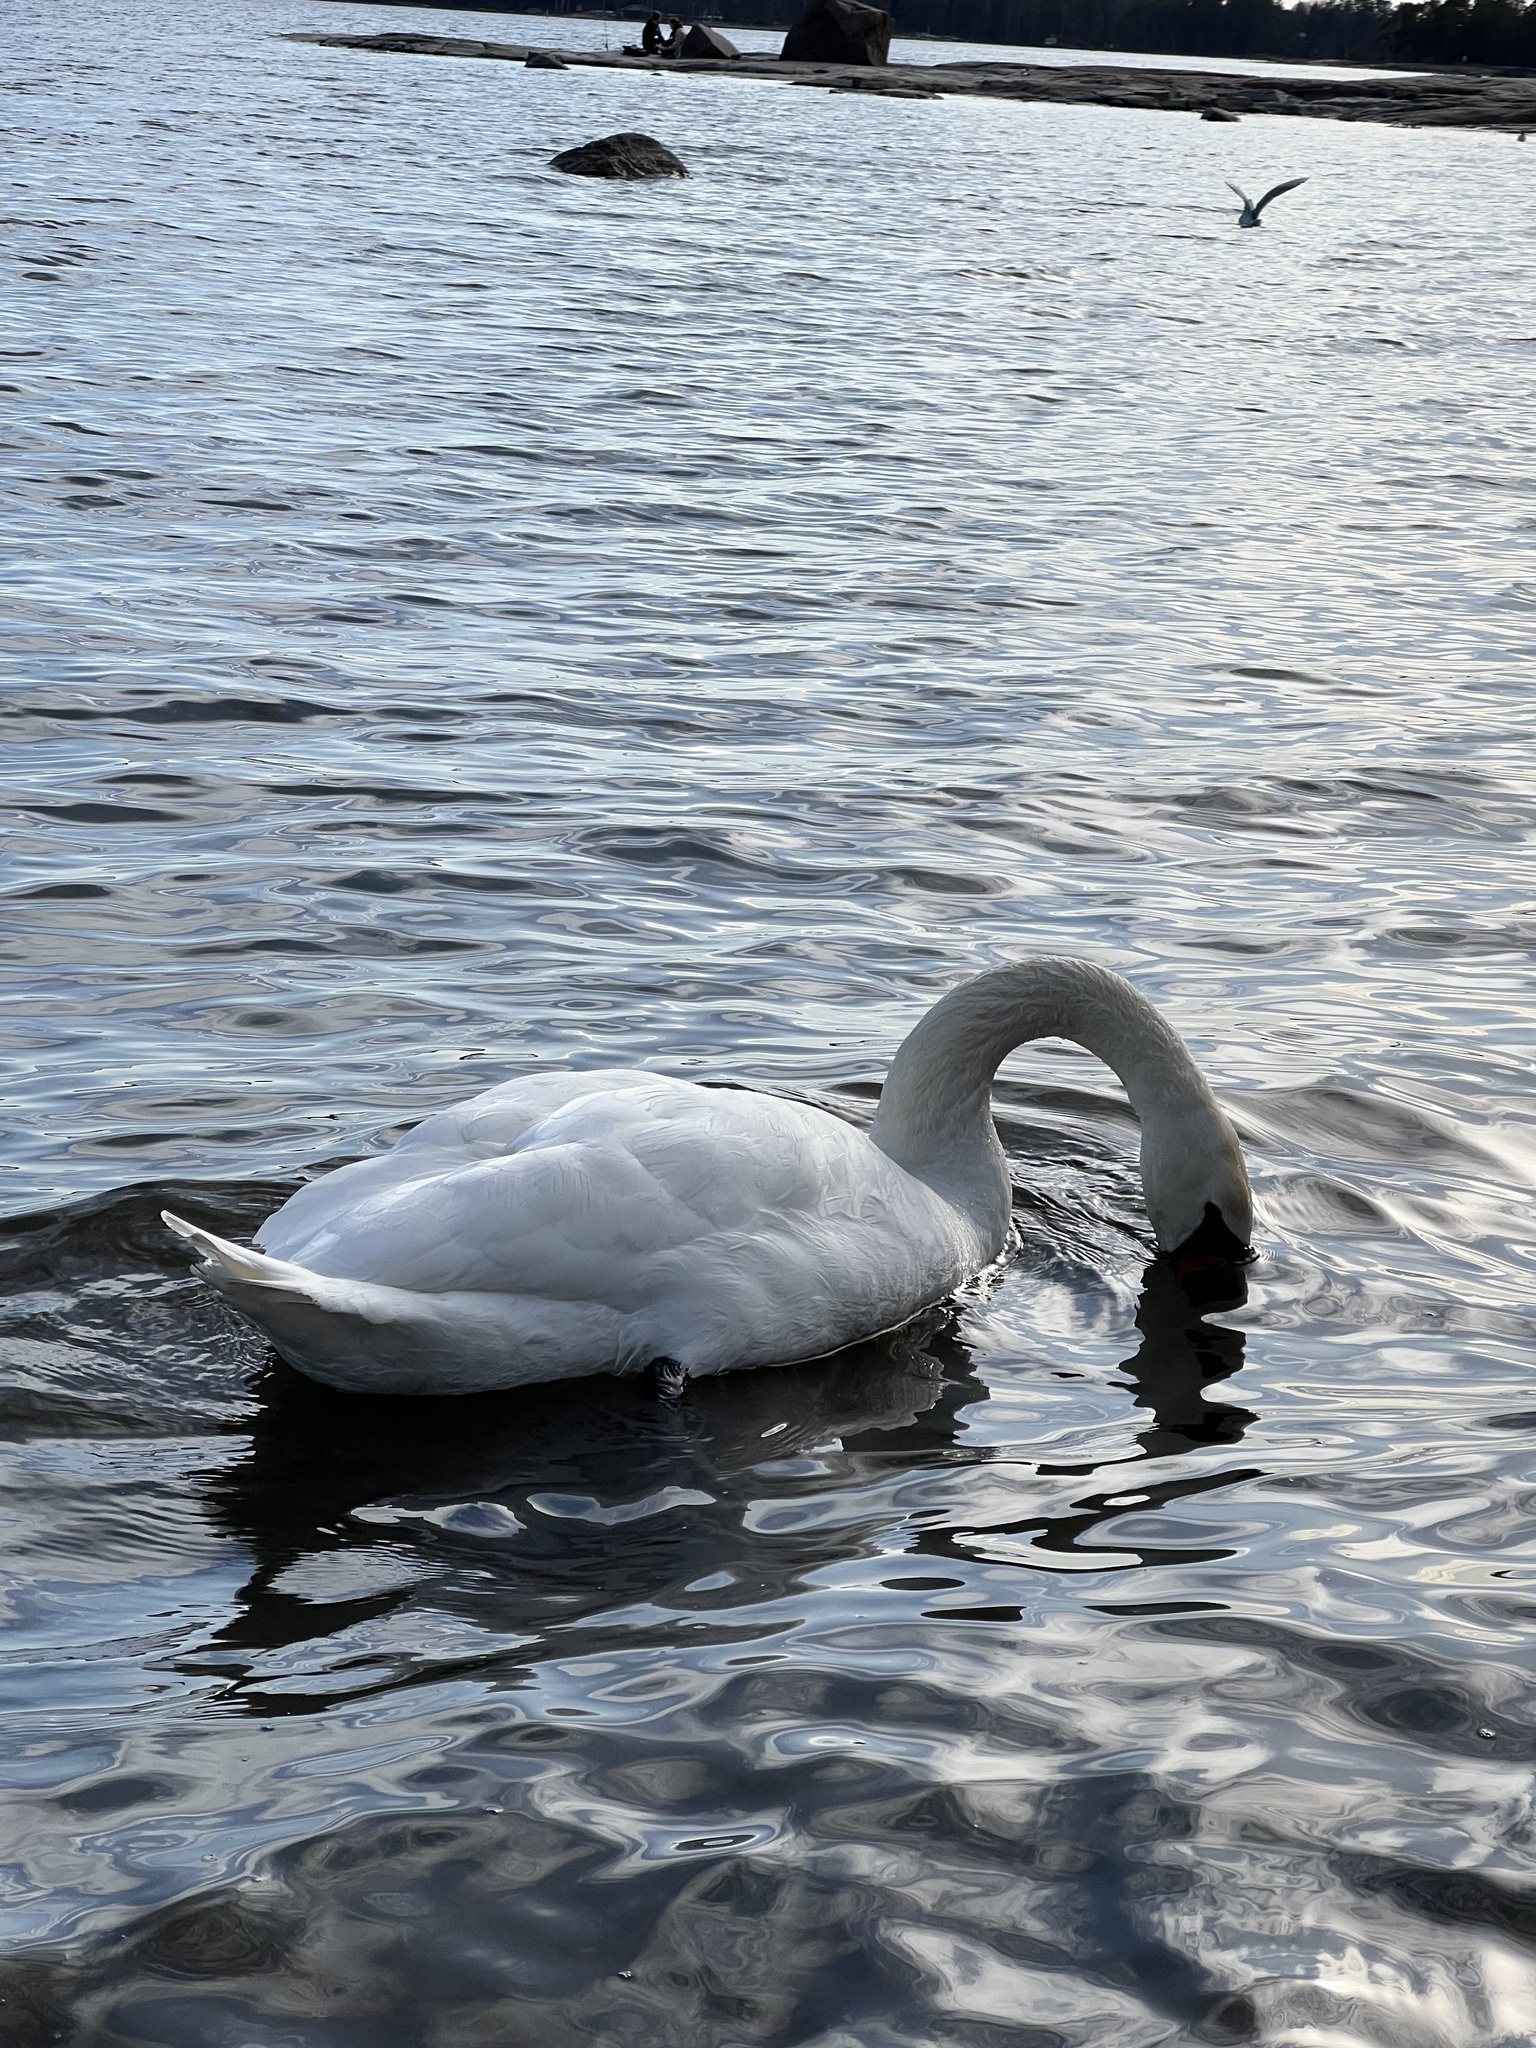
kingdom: Animalia
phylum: Chordata
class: Aves
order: Anseriformes
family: Anatidae
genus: Cygnus
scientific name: Cygnus olor
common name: Mute swan
